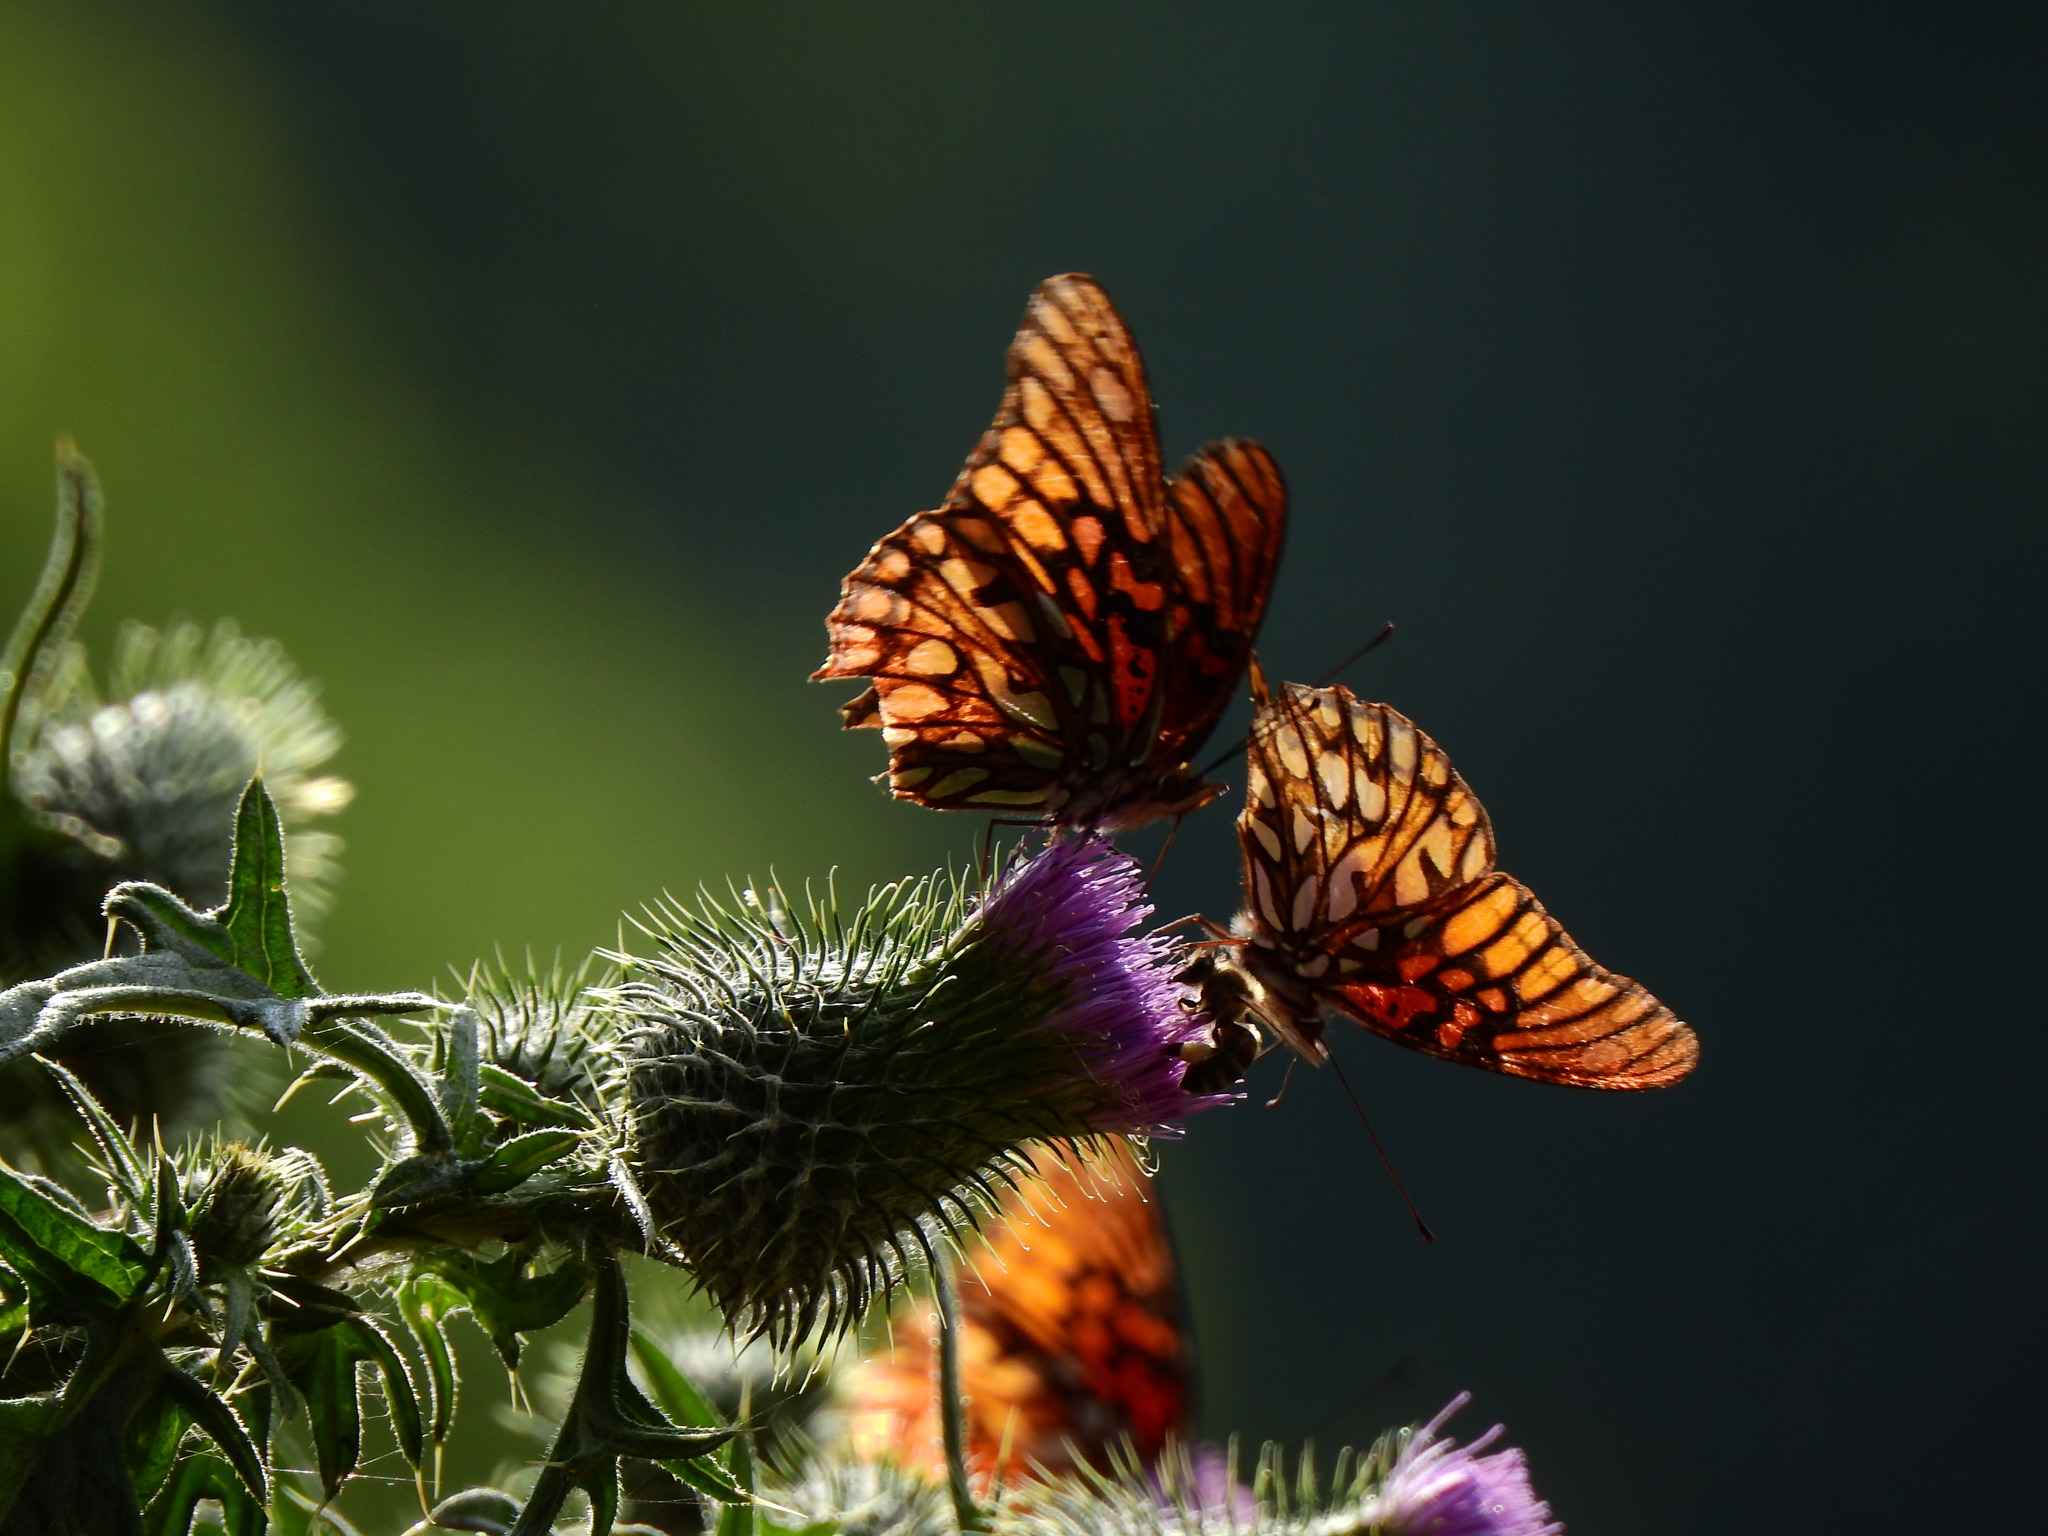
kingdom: Animalia
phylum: Arthropoda
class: Insecta
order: Lepidoptera
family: Nymphalidae
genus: Dione
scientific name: Dione moneta
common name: Mexican silverspot
